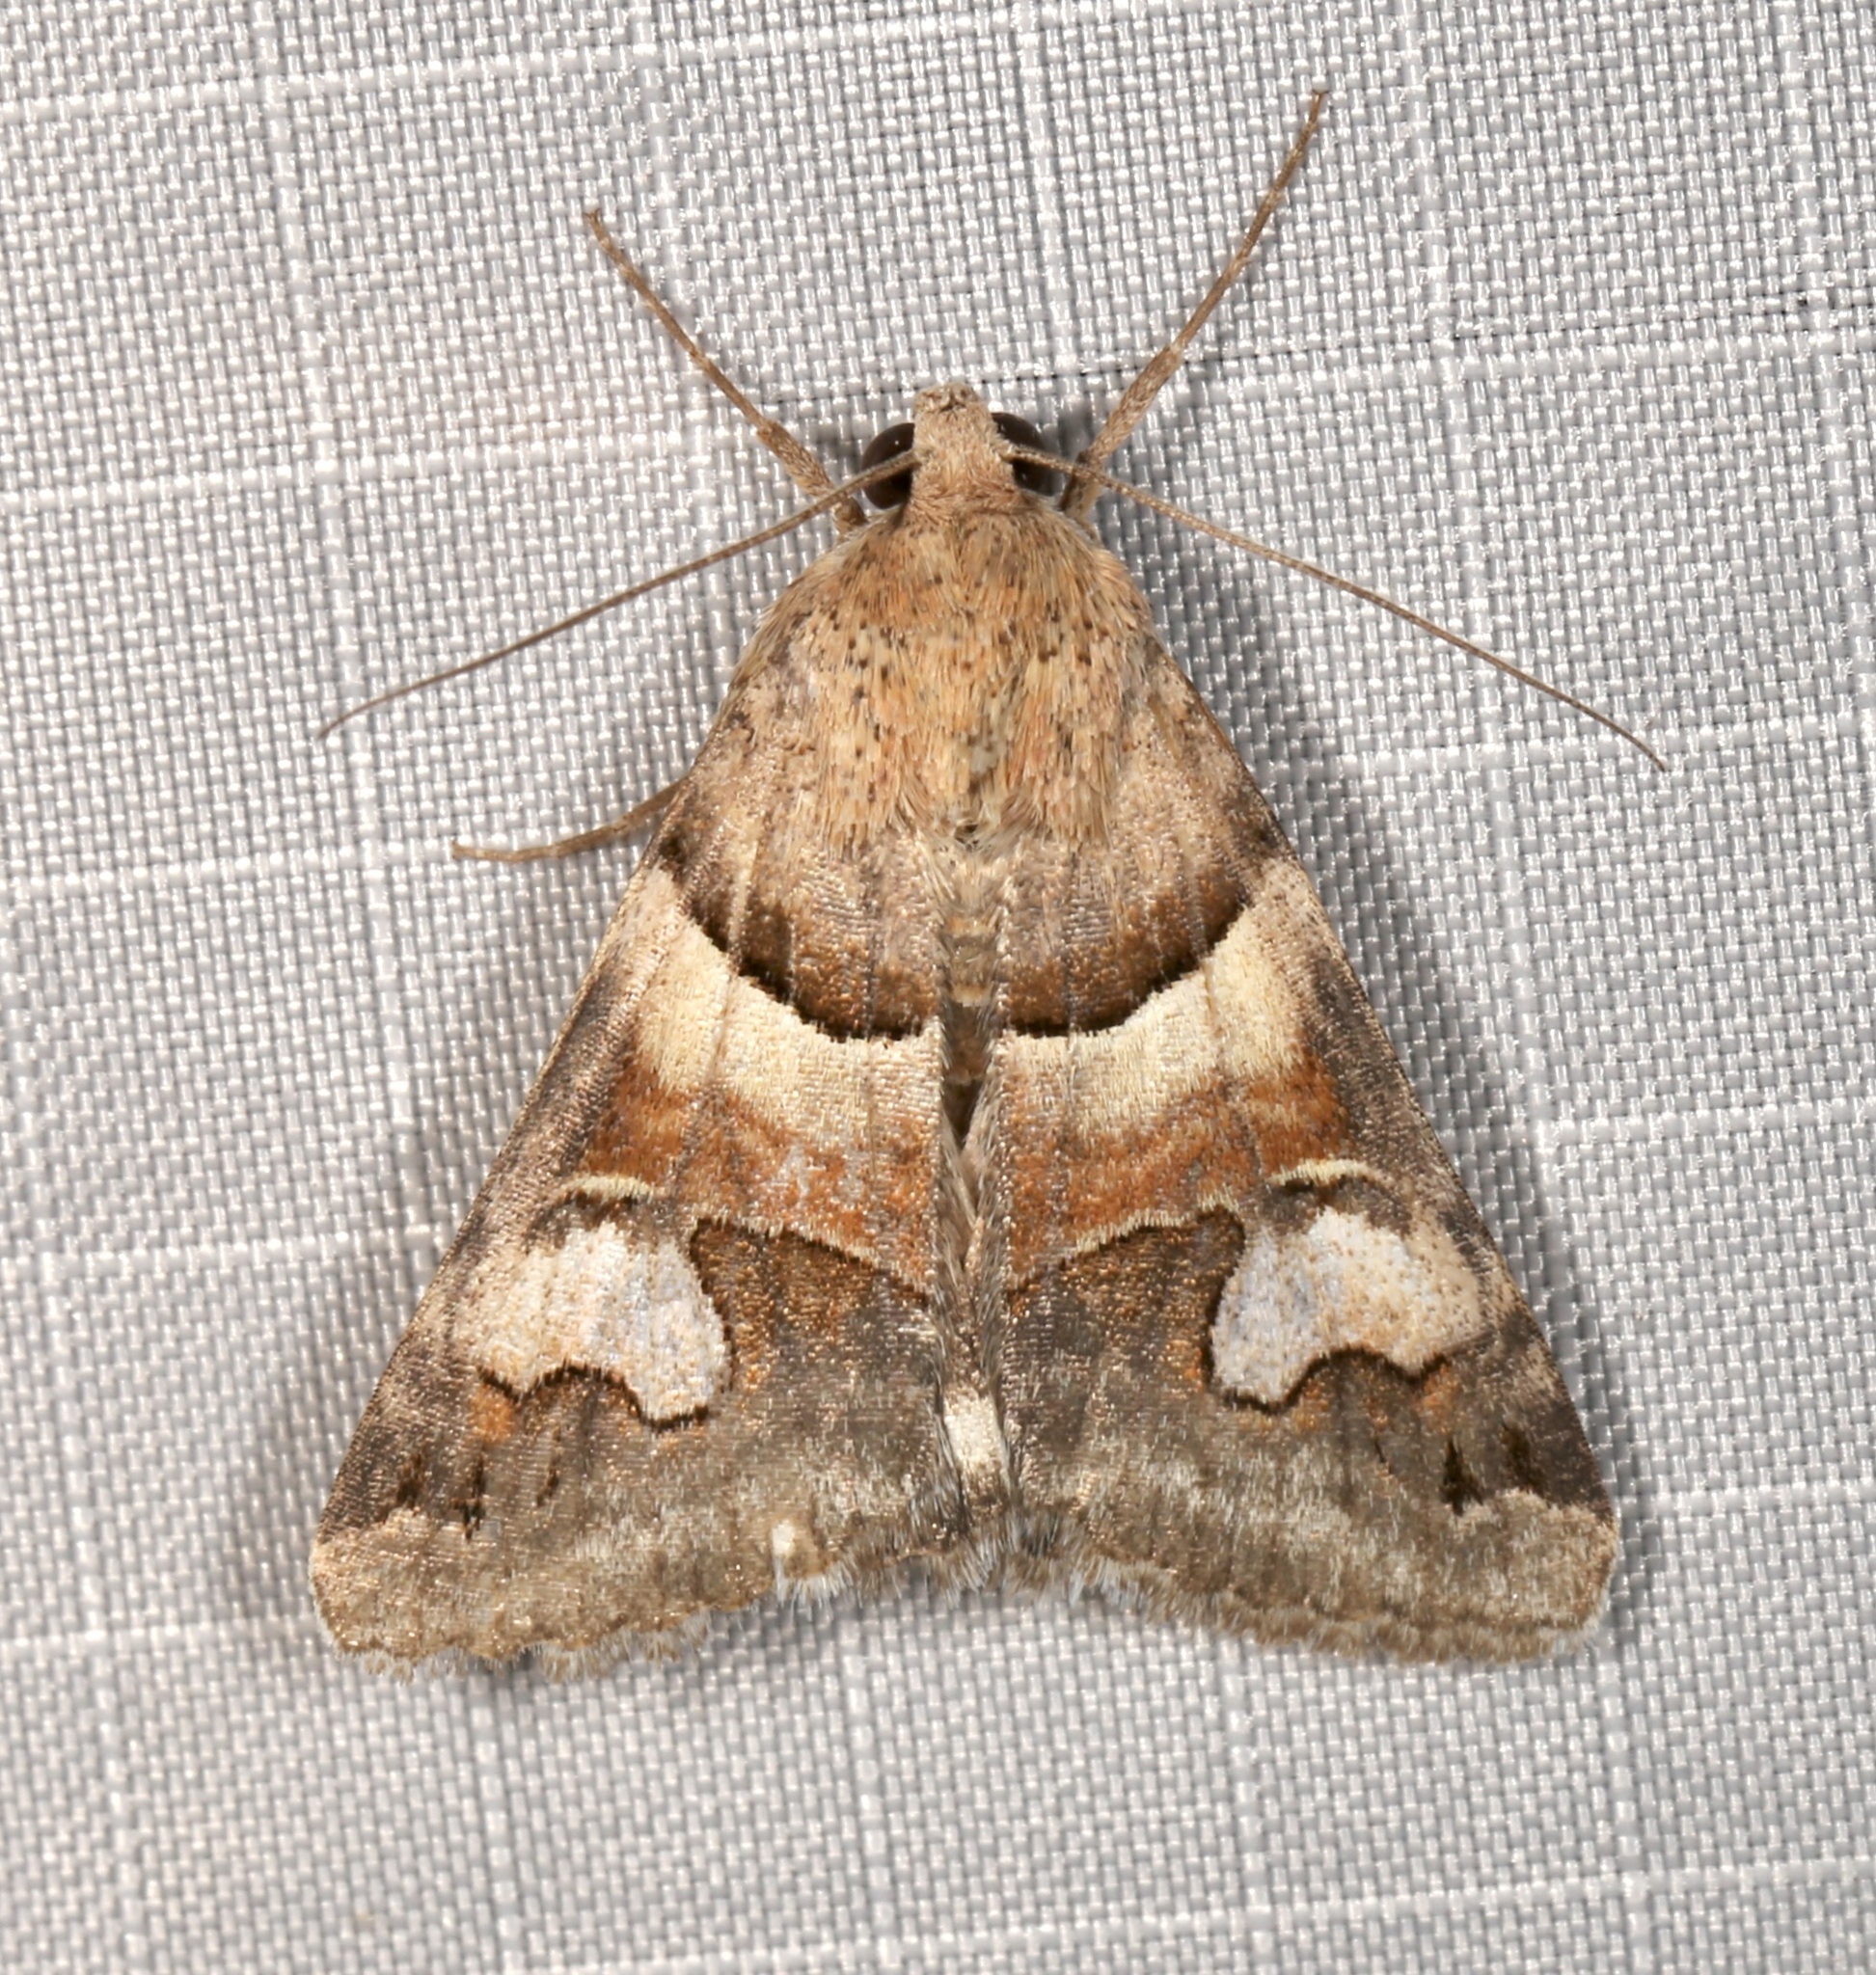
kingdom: Animalia
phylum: Arthropoda
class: Insecta
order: Lepidoptera
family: Erebidae
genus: Drasteria
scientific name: Drasteria pallescens
